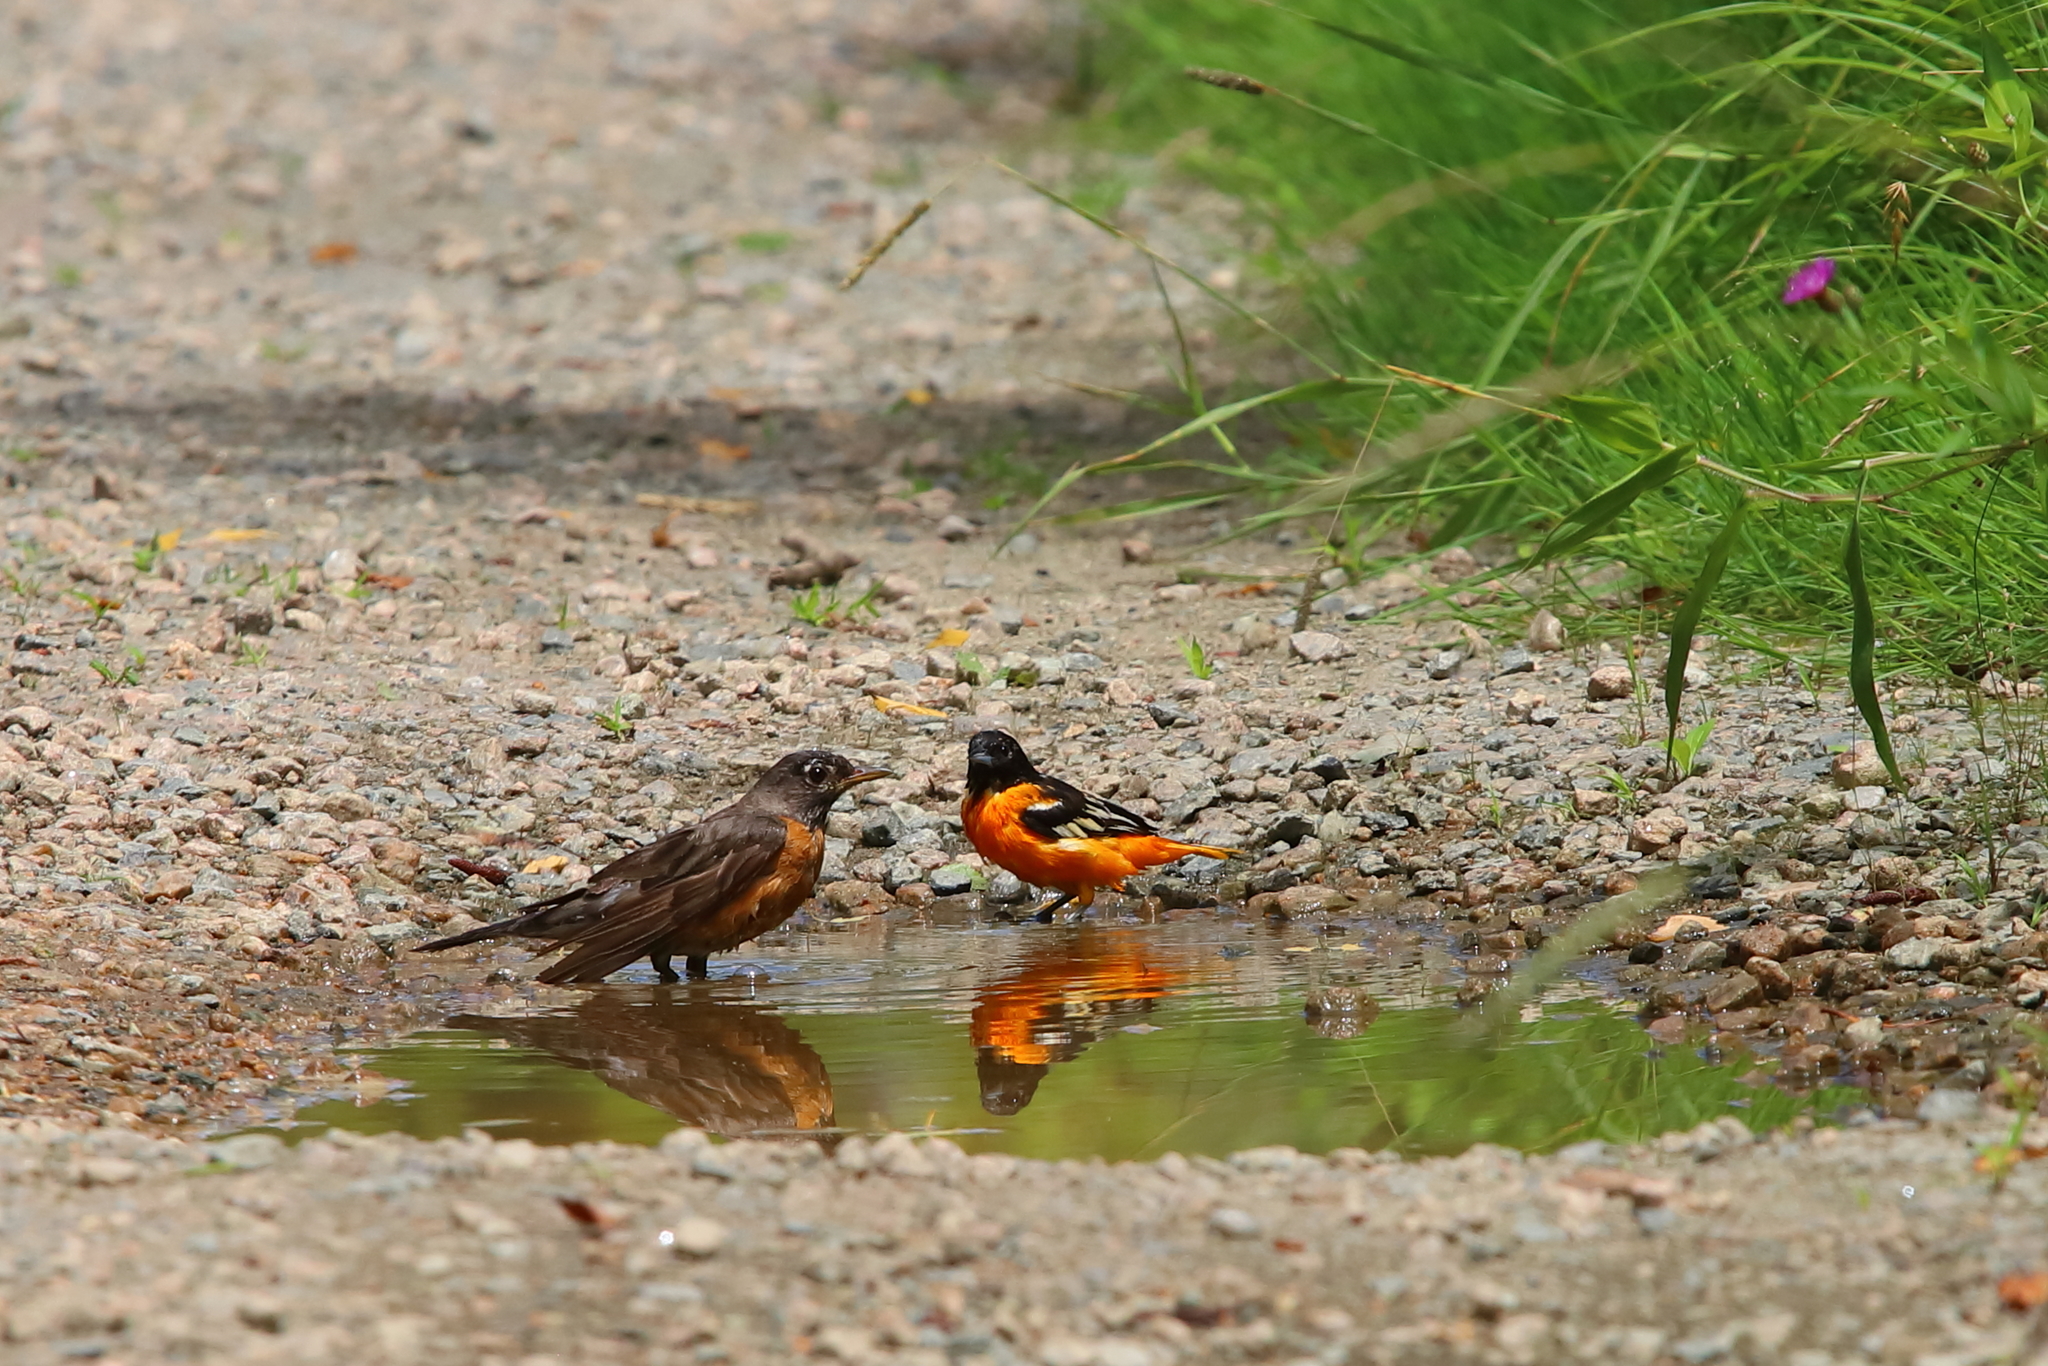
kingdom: Animalia
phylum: Chordata
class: Aves
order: Passeriformes
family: Icteridae
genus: Icterus
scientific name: Icterus galbula
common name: Baltimore oriole
